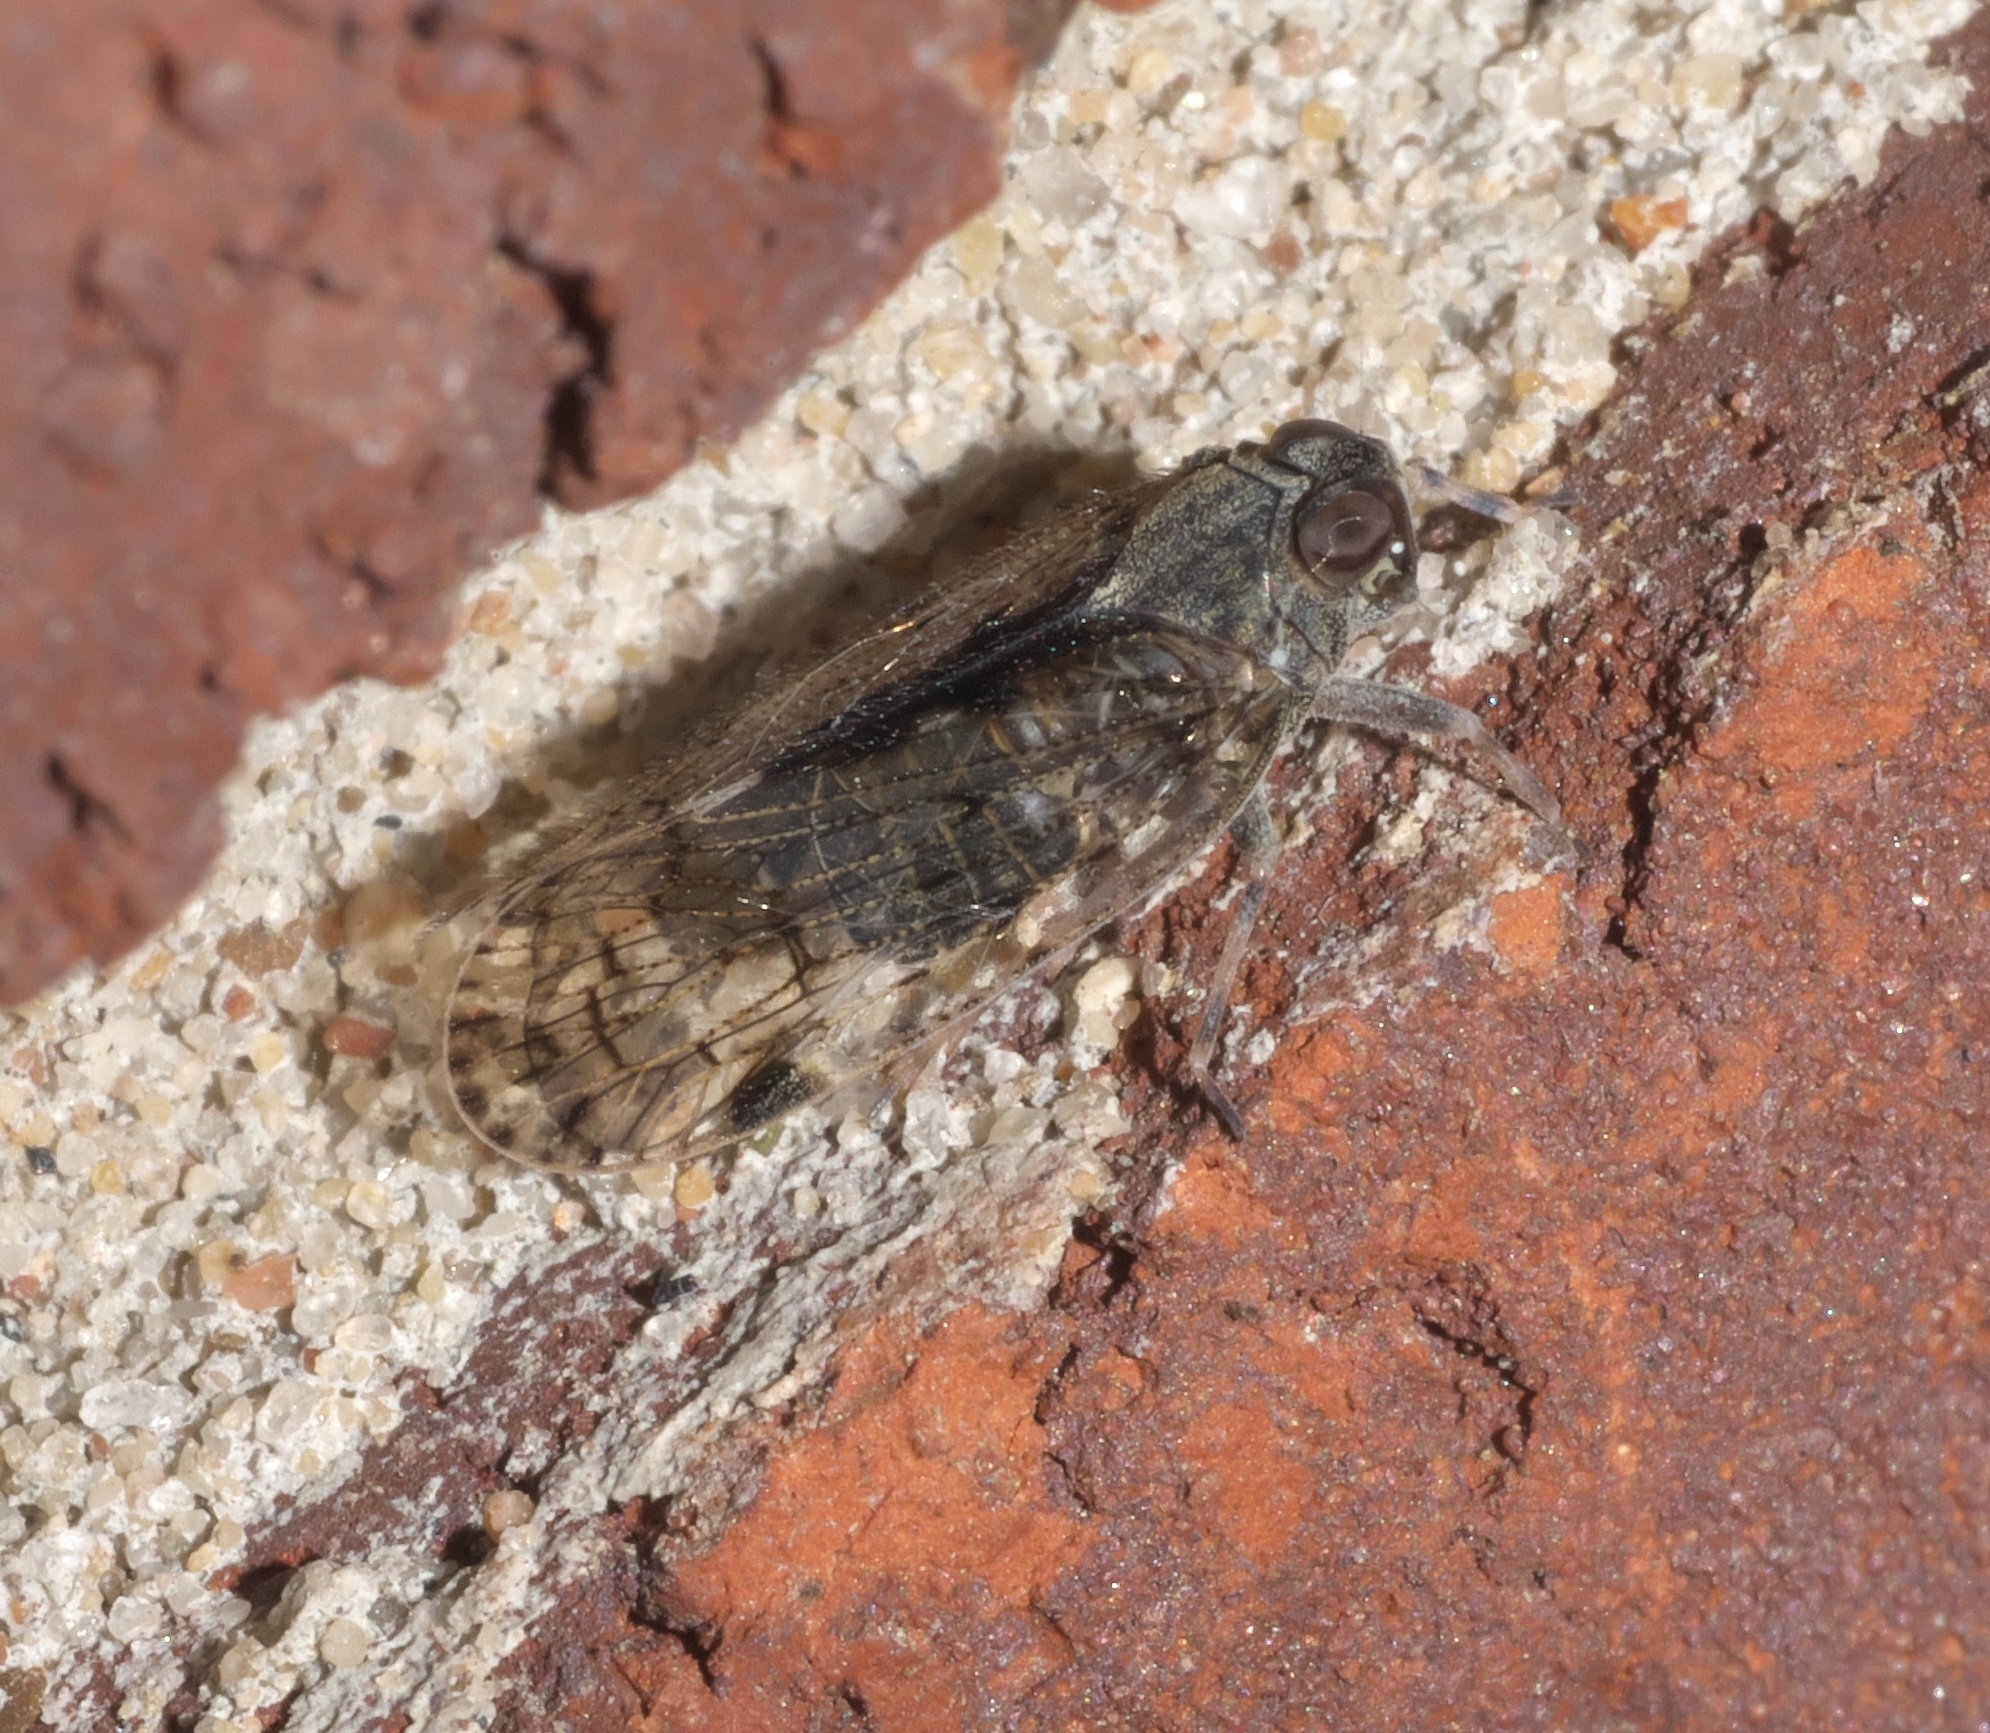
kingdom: Animalia
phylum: Arthropoda
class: Insecta
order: Hemiptera
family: Cixiidae
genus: Melanoliarus
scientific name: Melanoliarus placitus
